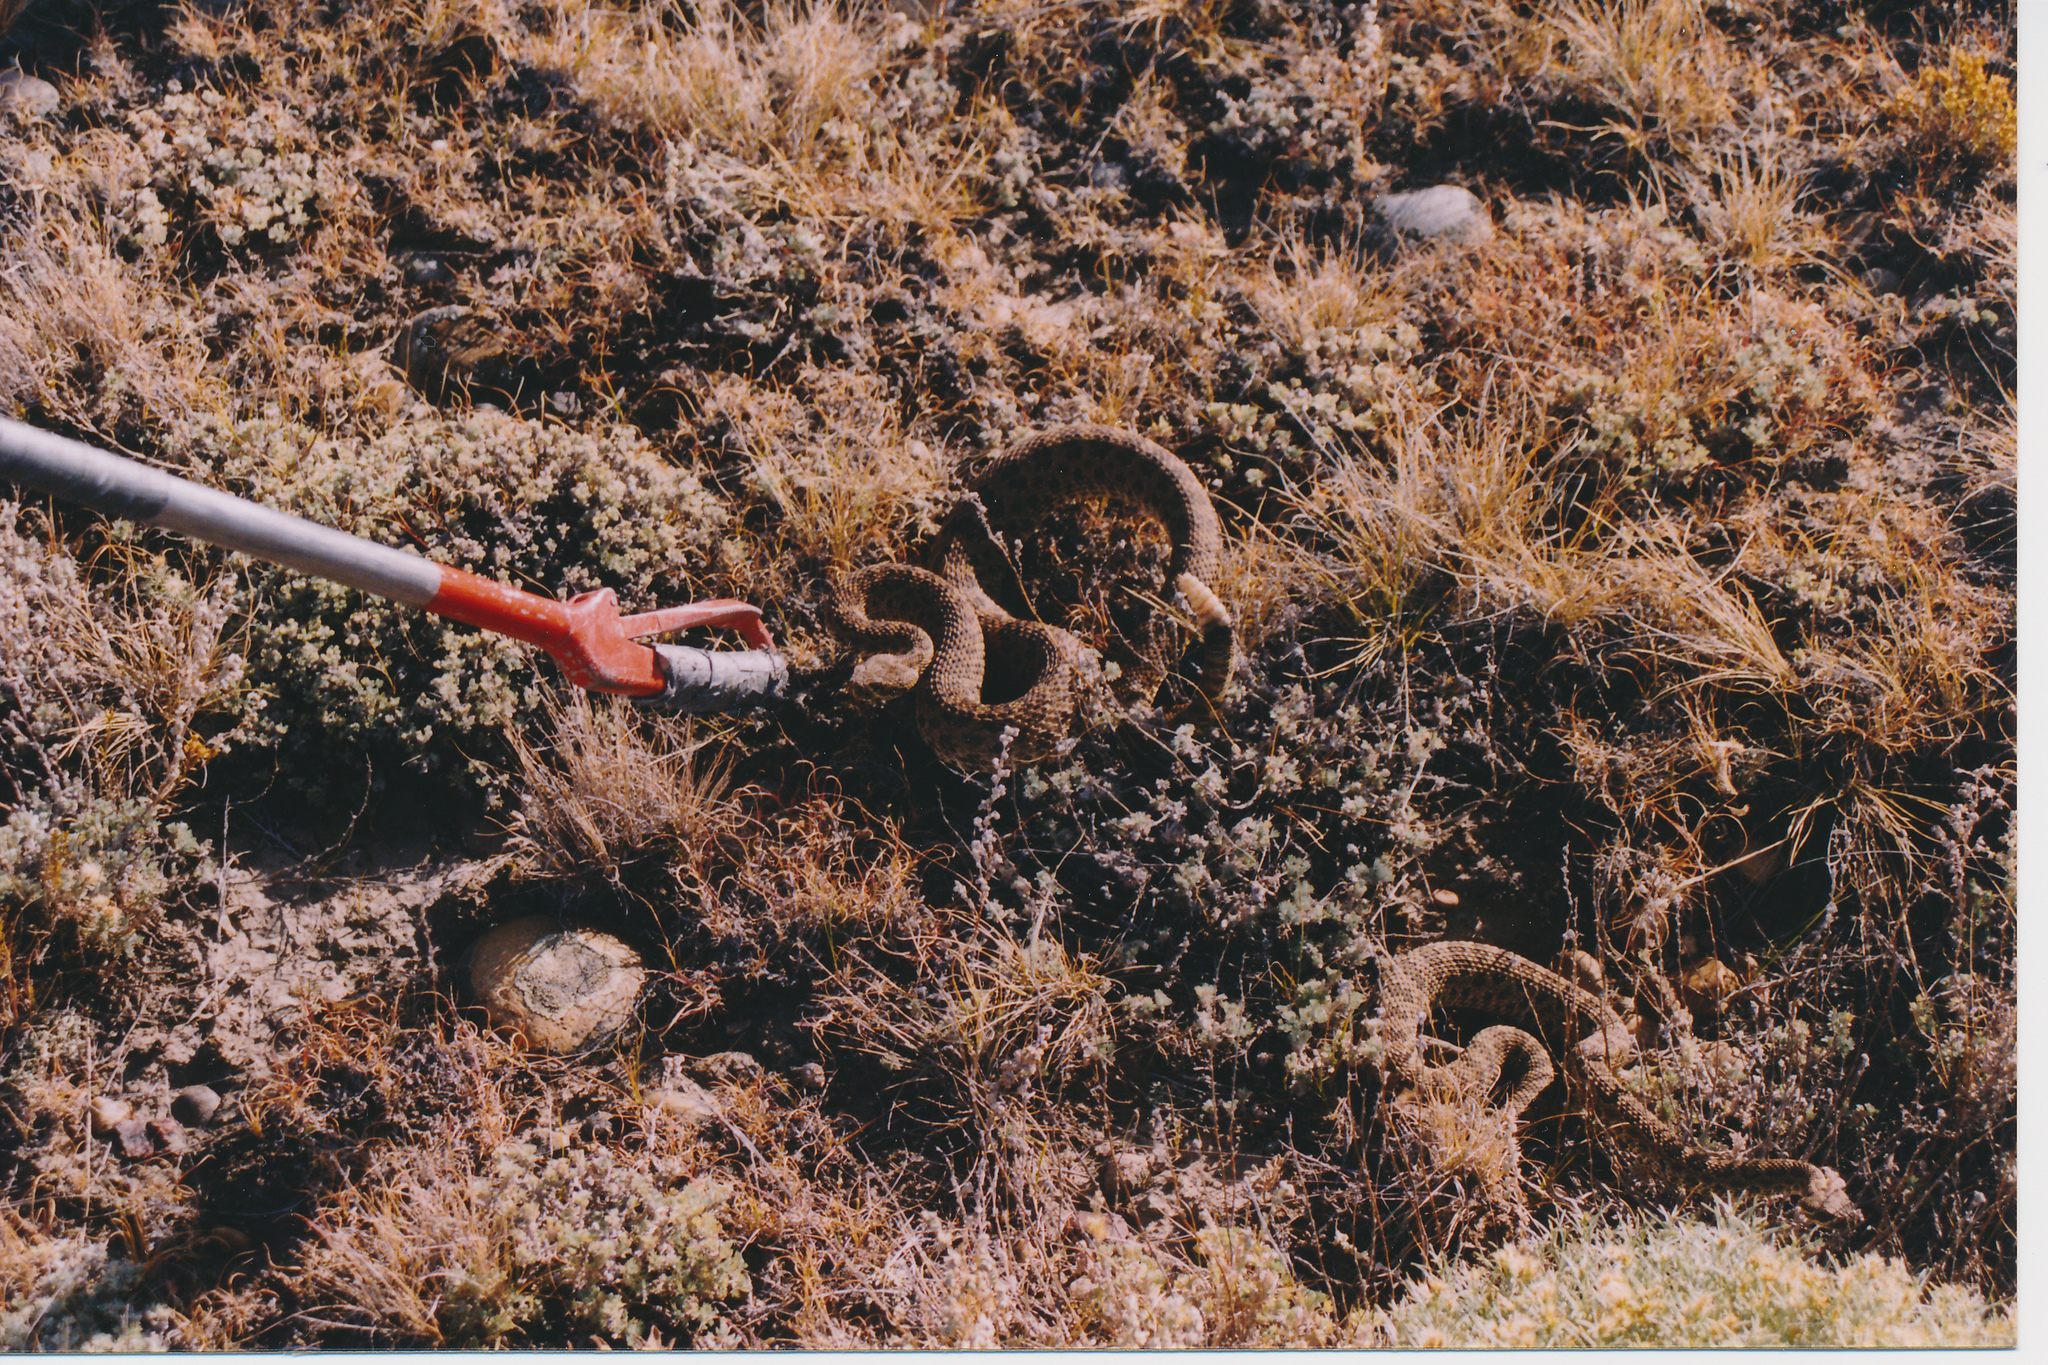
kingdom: Animalia
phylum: Chordata
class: Squamata
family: Viperidae
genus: Crotalus
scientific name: Crotalus viridis
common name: Prairie rattlesnake
